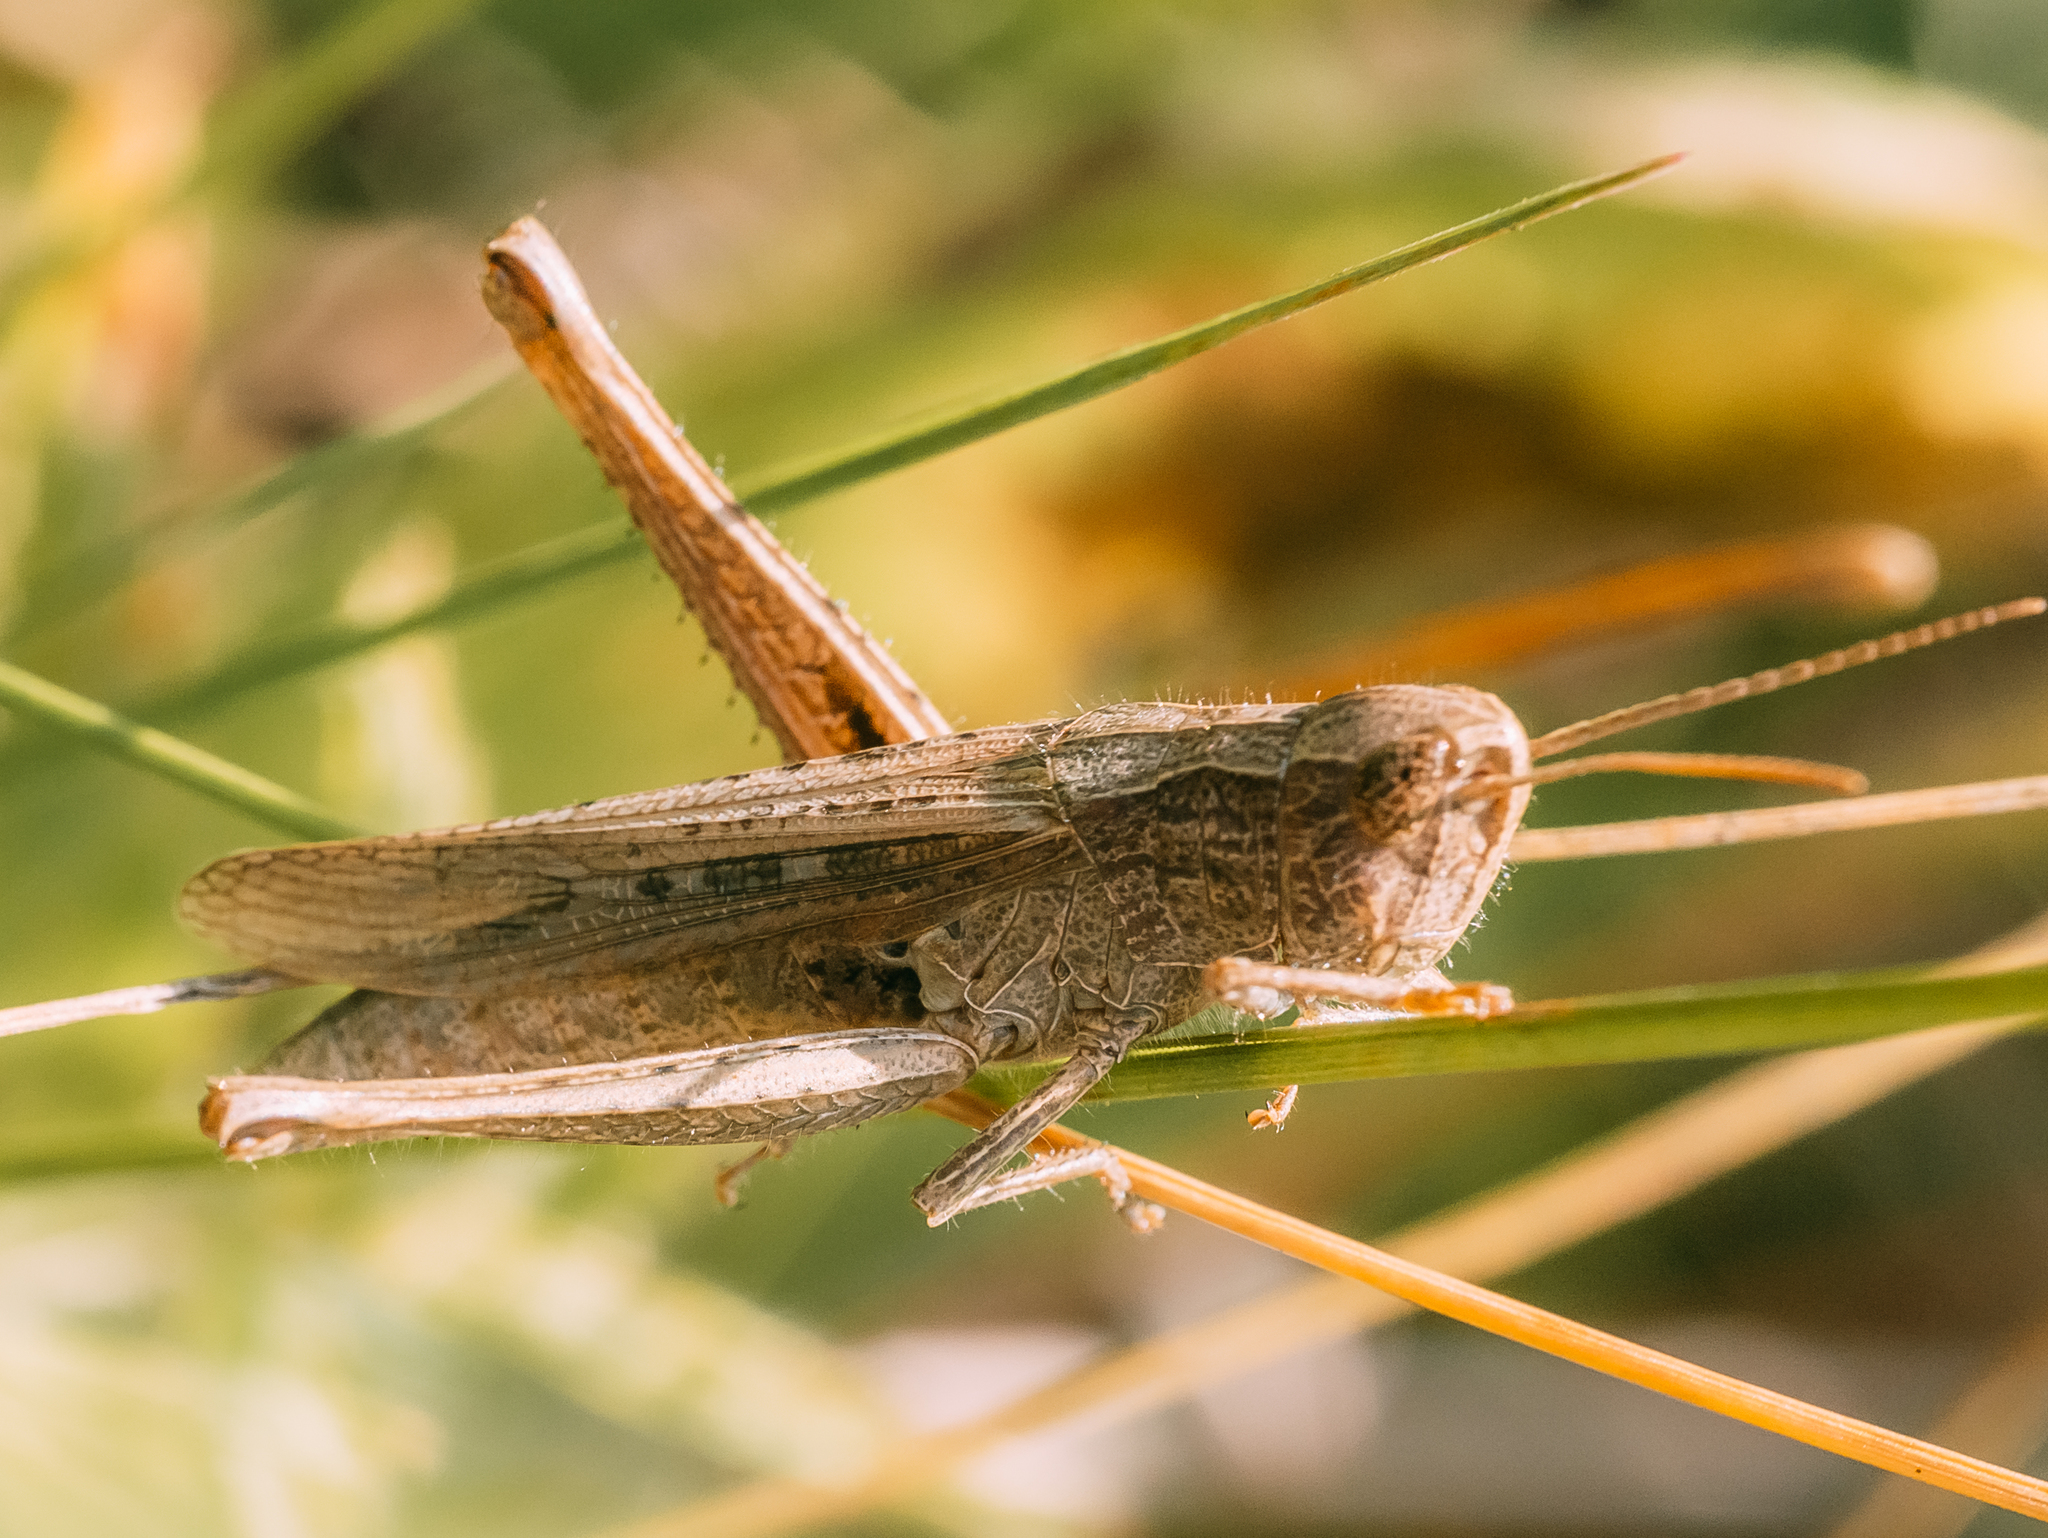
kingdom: Animalia
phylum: Arthropoda
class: Insecta
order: Orthoptera
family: Acrididae
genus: Chorthippus
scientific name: Chorthippus dorsatus
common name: Steppe grasshopper
